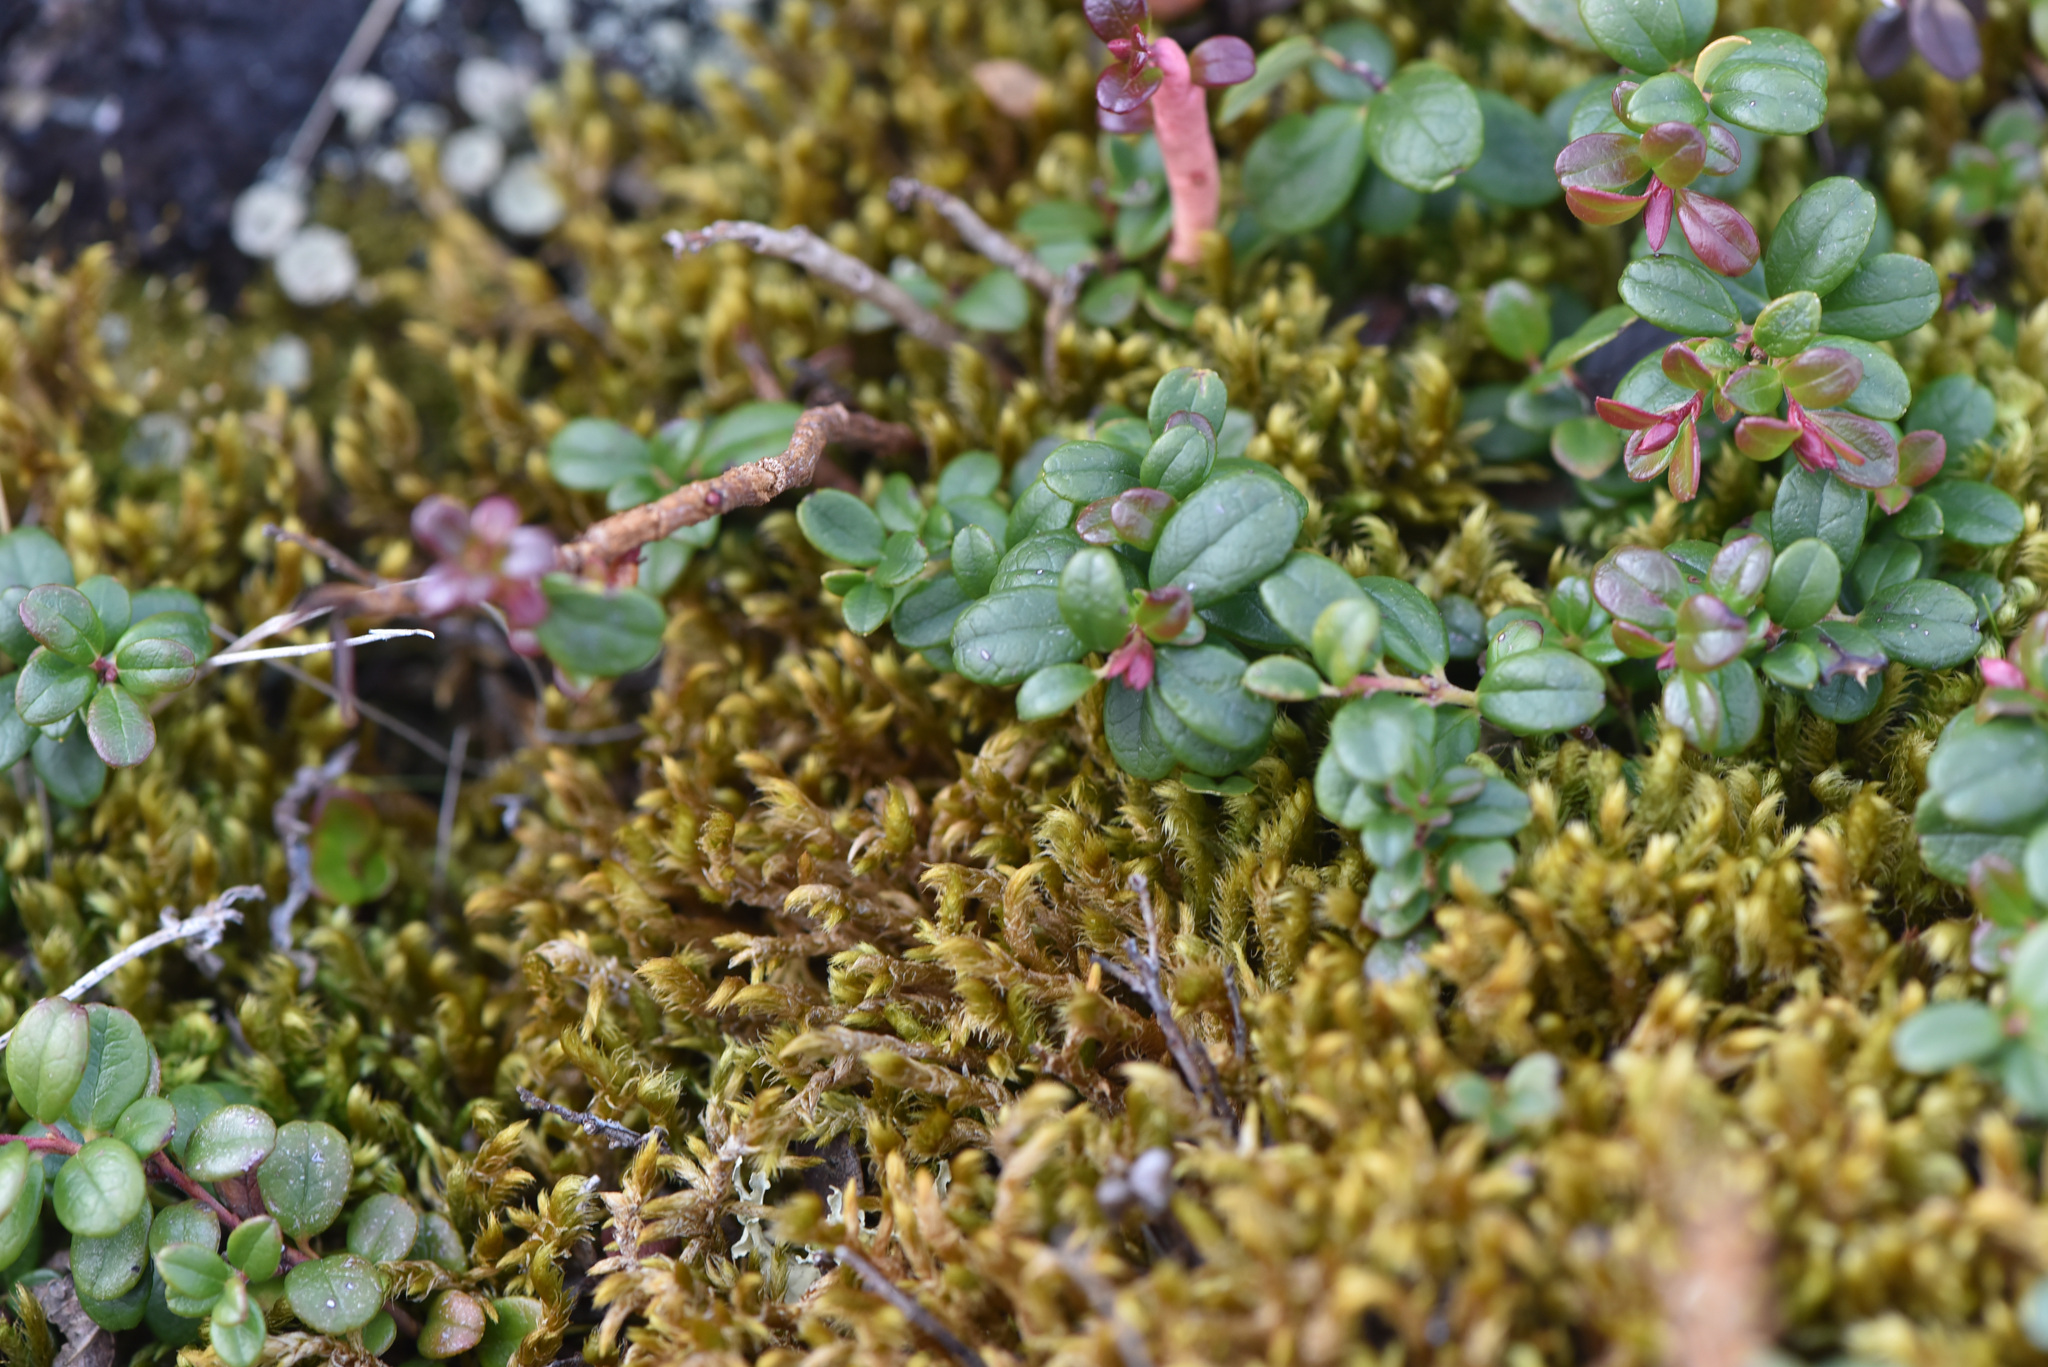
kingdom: Plantae
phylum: Tracheophyta
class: Magnoliopsida
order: Ericales
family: Ericaceae
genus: Vaccinium
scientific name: Vaccinium vitis-idaea
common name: Cowberry
